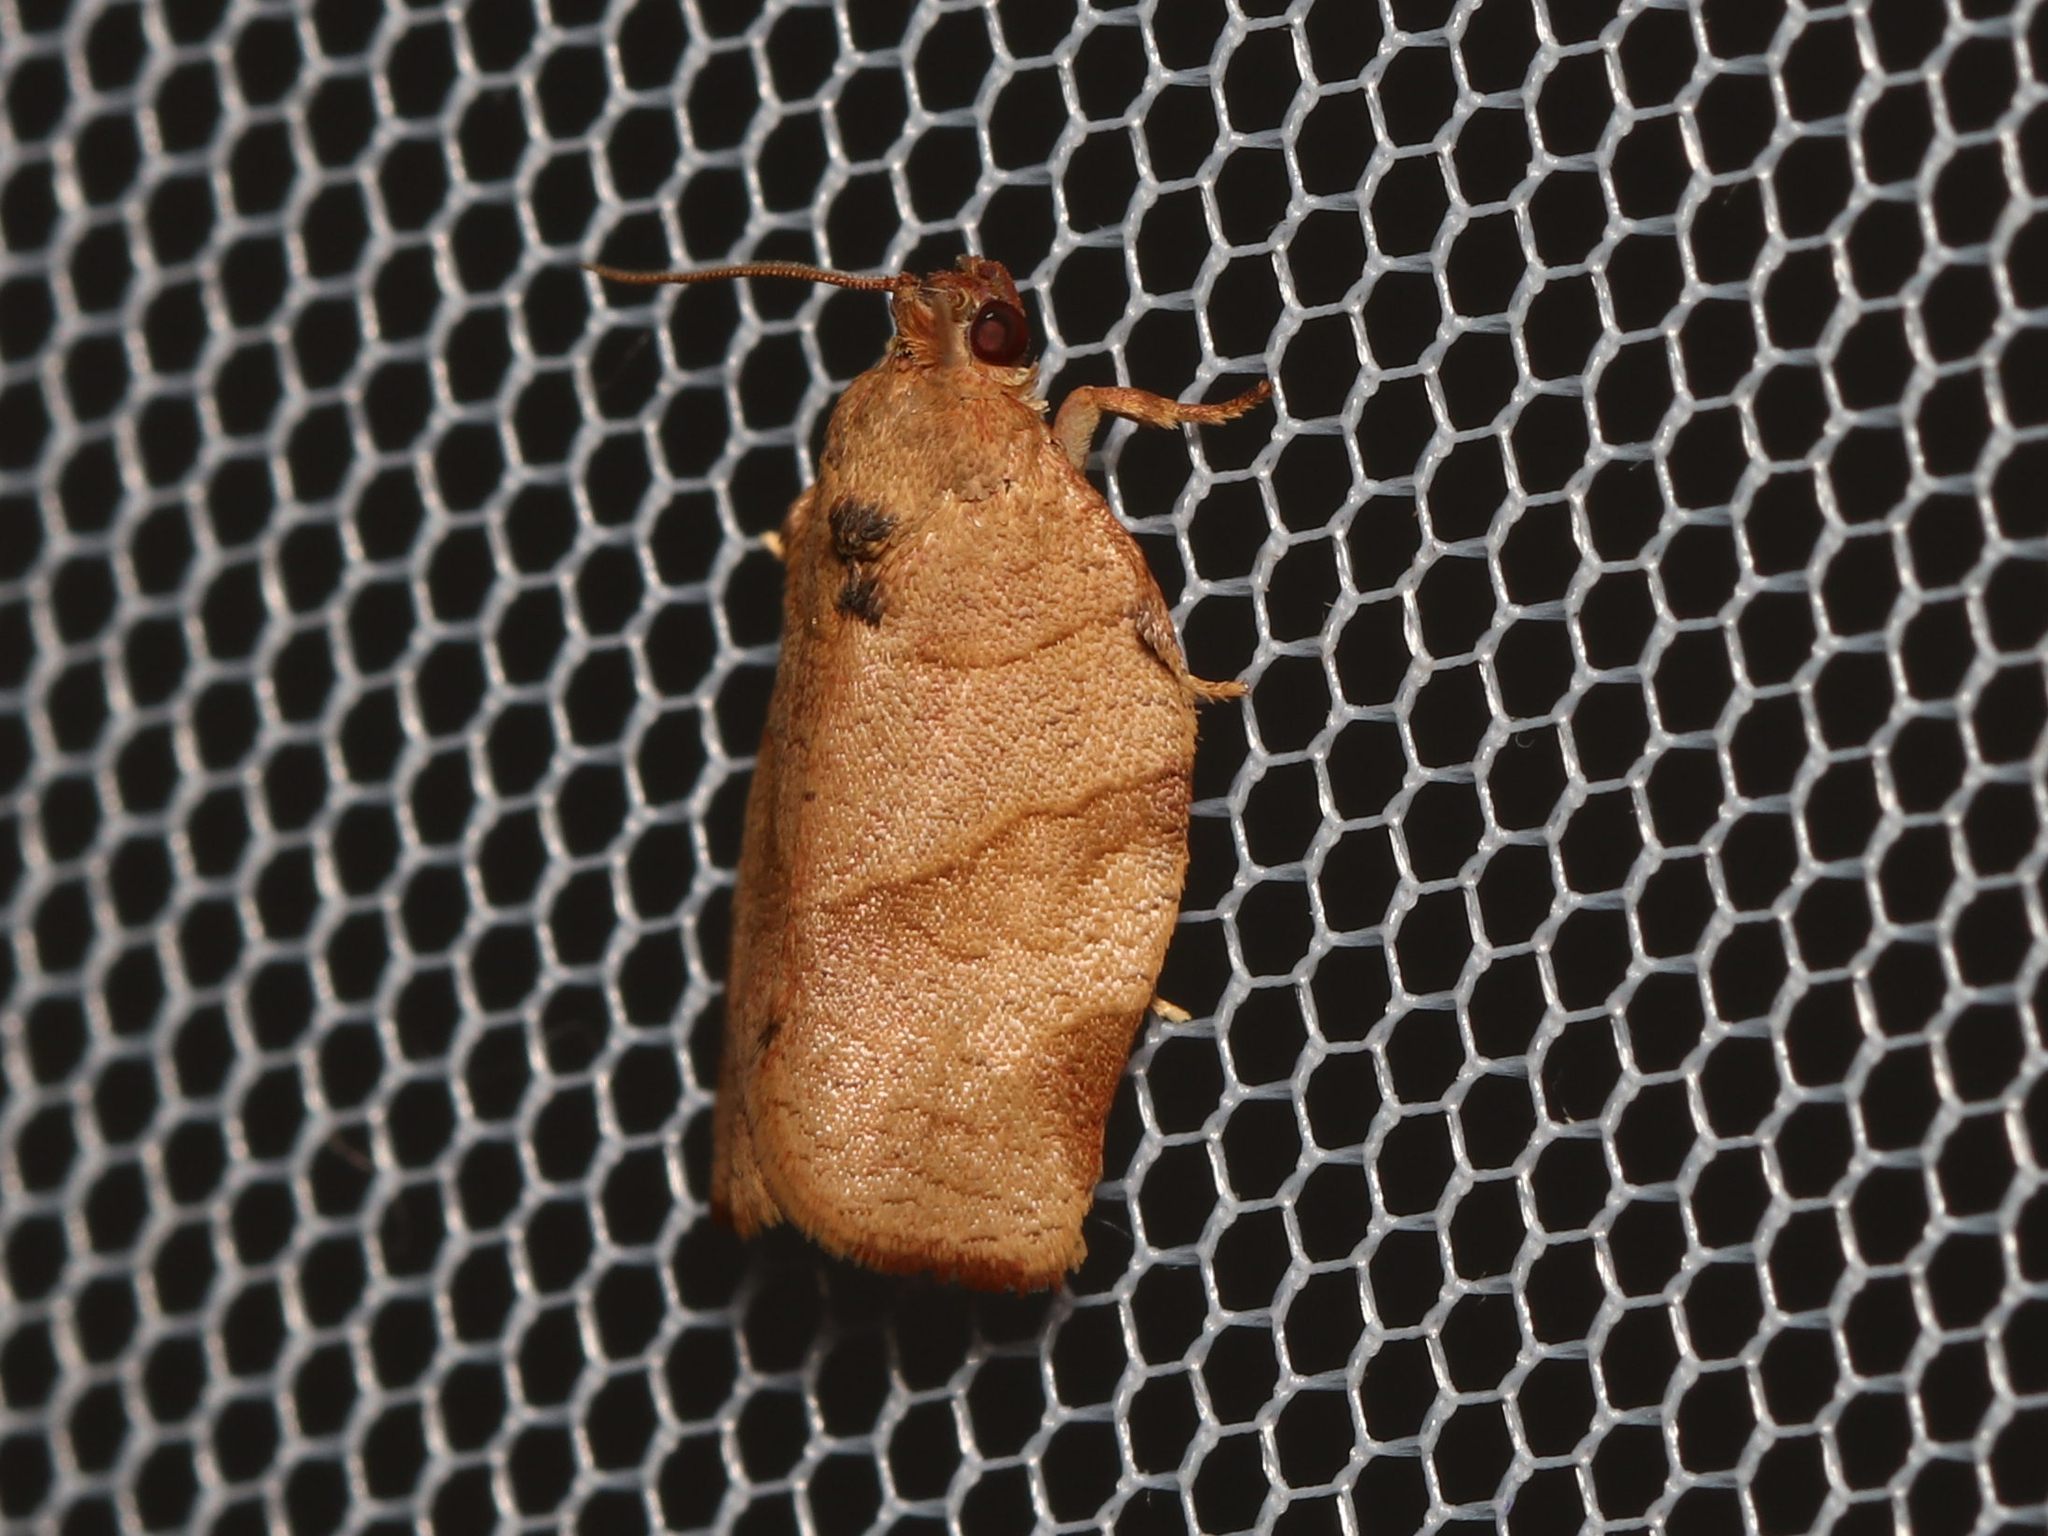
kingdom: Animalia
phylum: Arthropoda
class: Insecta
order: Lepidoptera
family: Tortricidae
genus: Choristoneura
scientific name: Choristoneura rosaceana
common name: Oblique-banded leafroller moth
